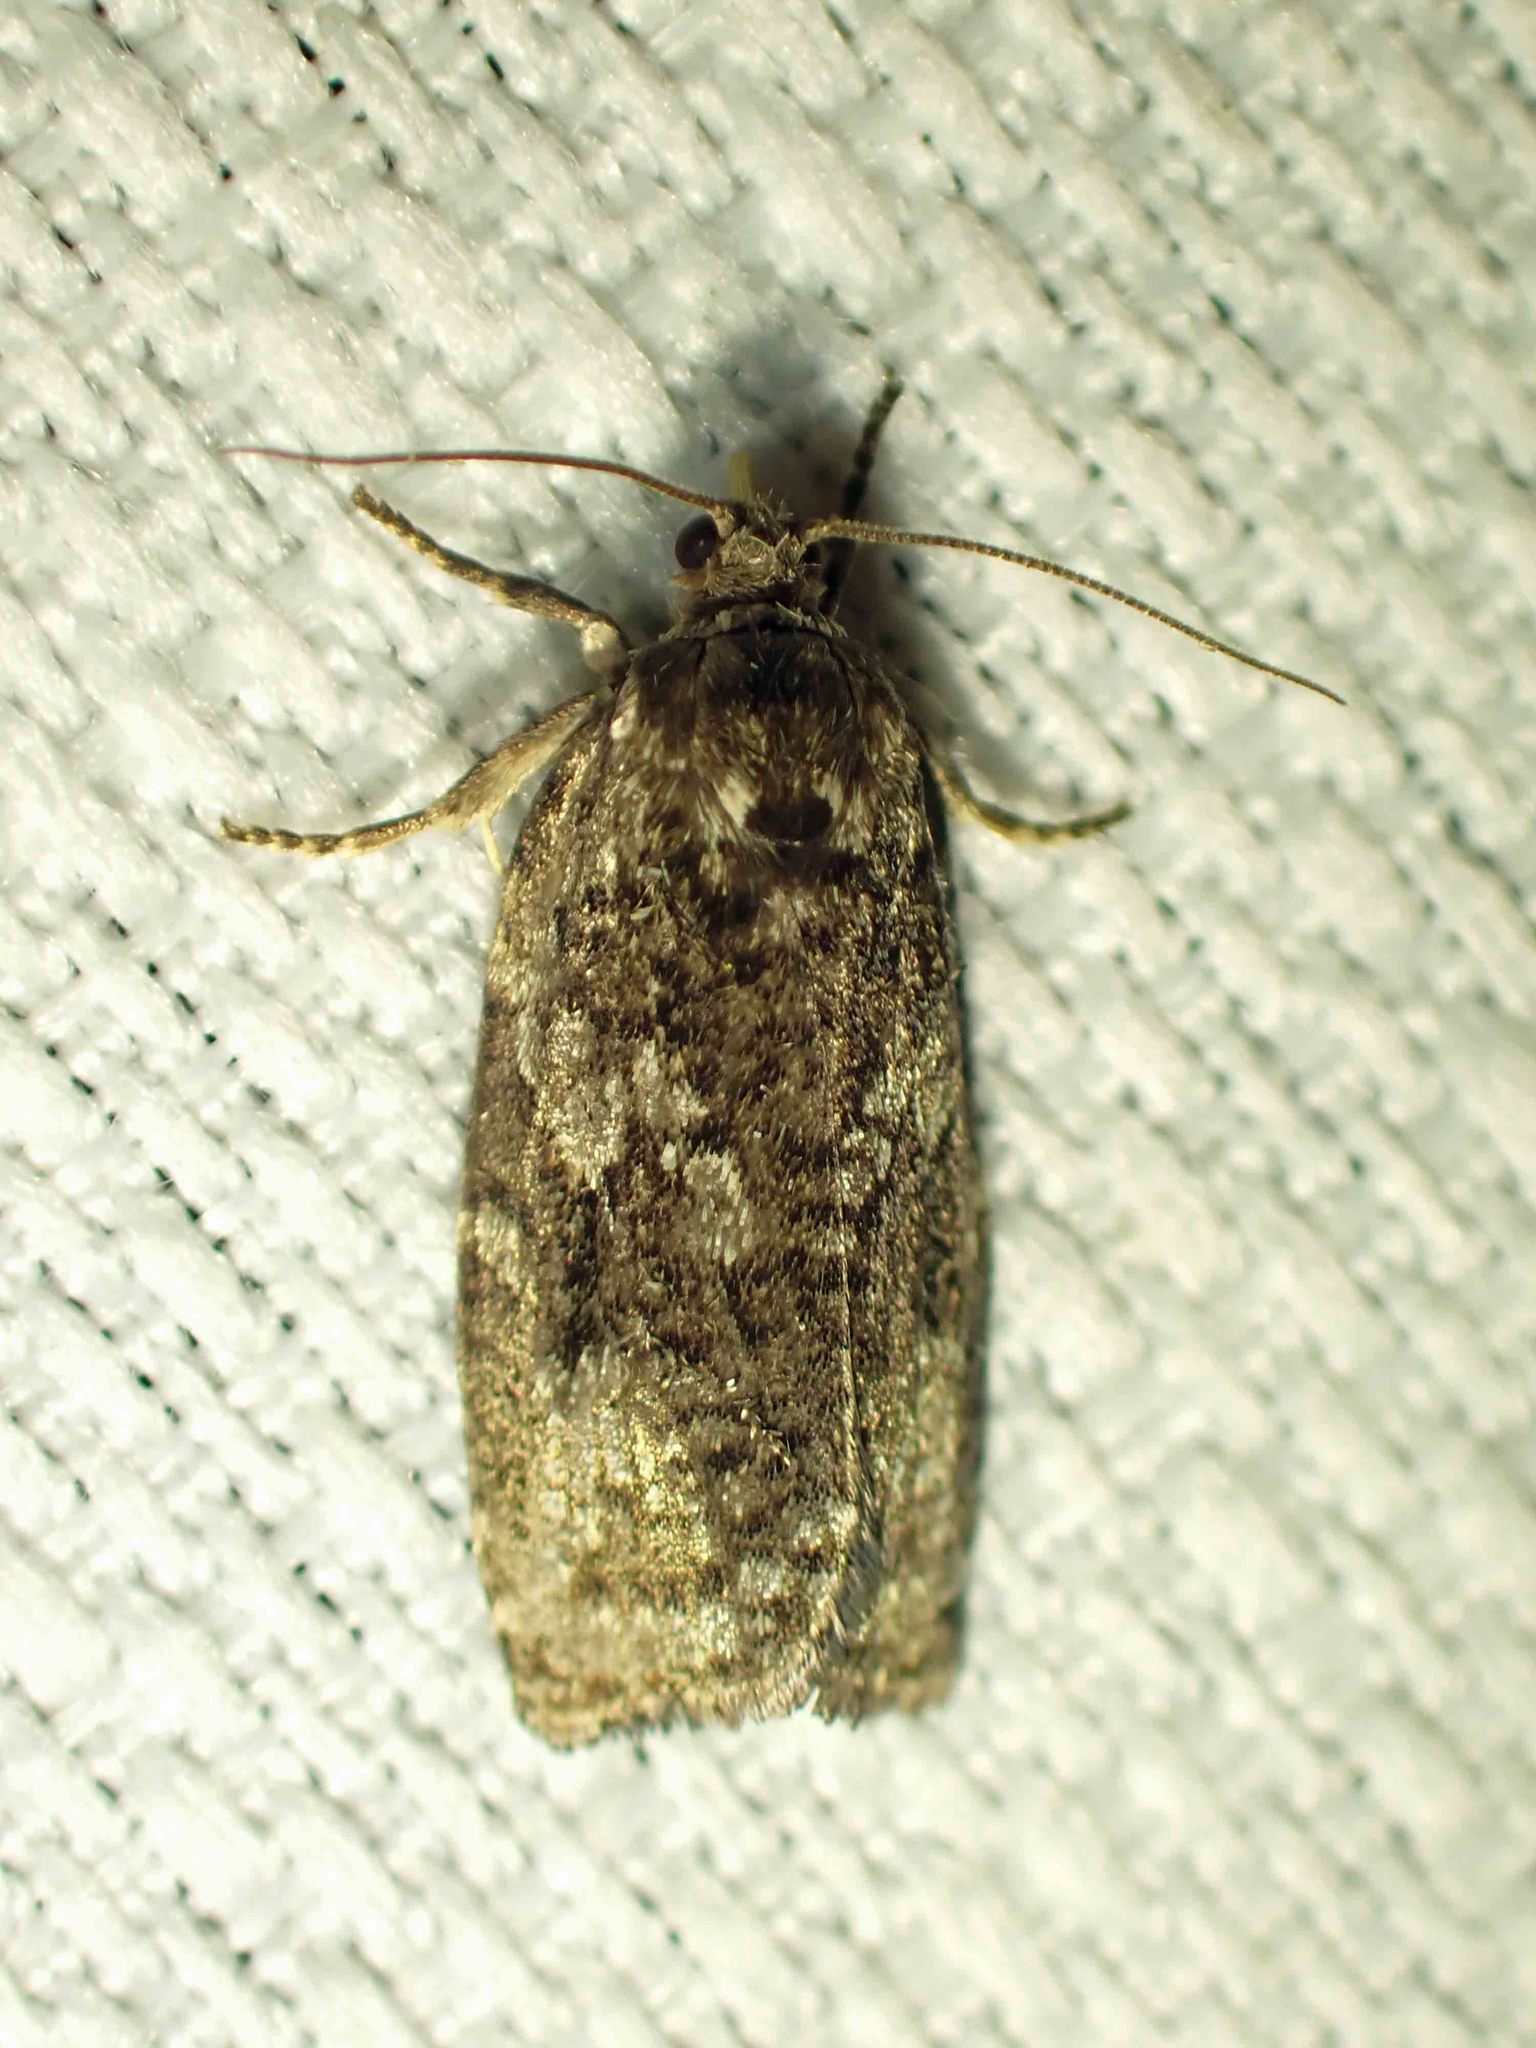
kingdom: Animalia
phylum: Arthropoda
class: Insecta
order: Lepidoptera
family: Tortricidae
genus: Choristoneura
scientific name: Choristoneura fumiferana
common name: Spruce budworm
